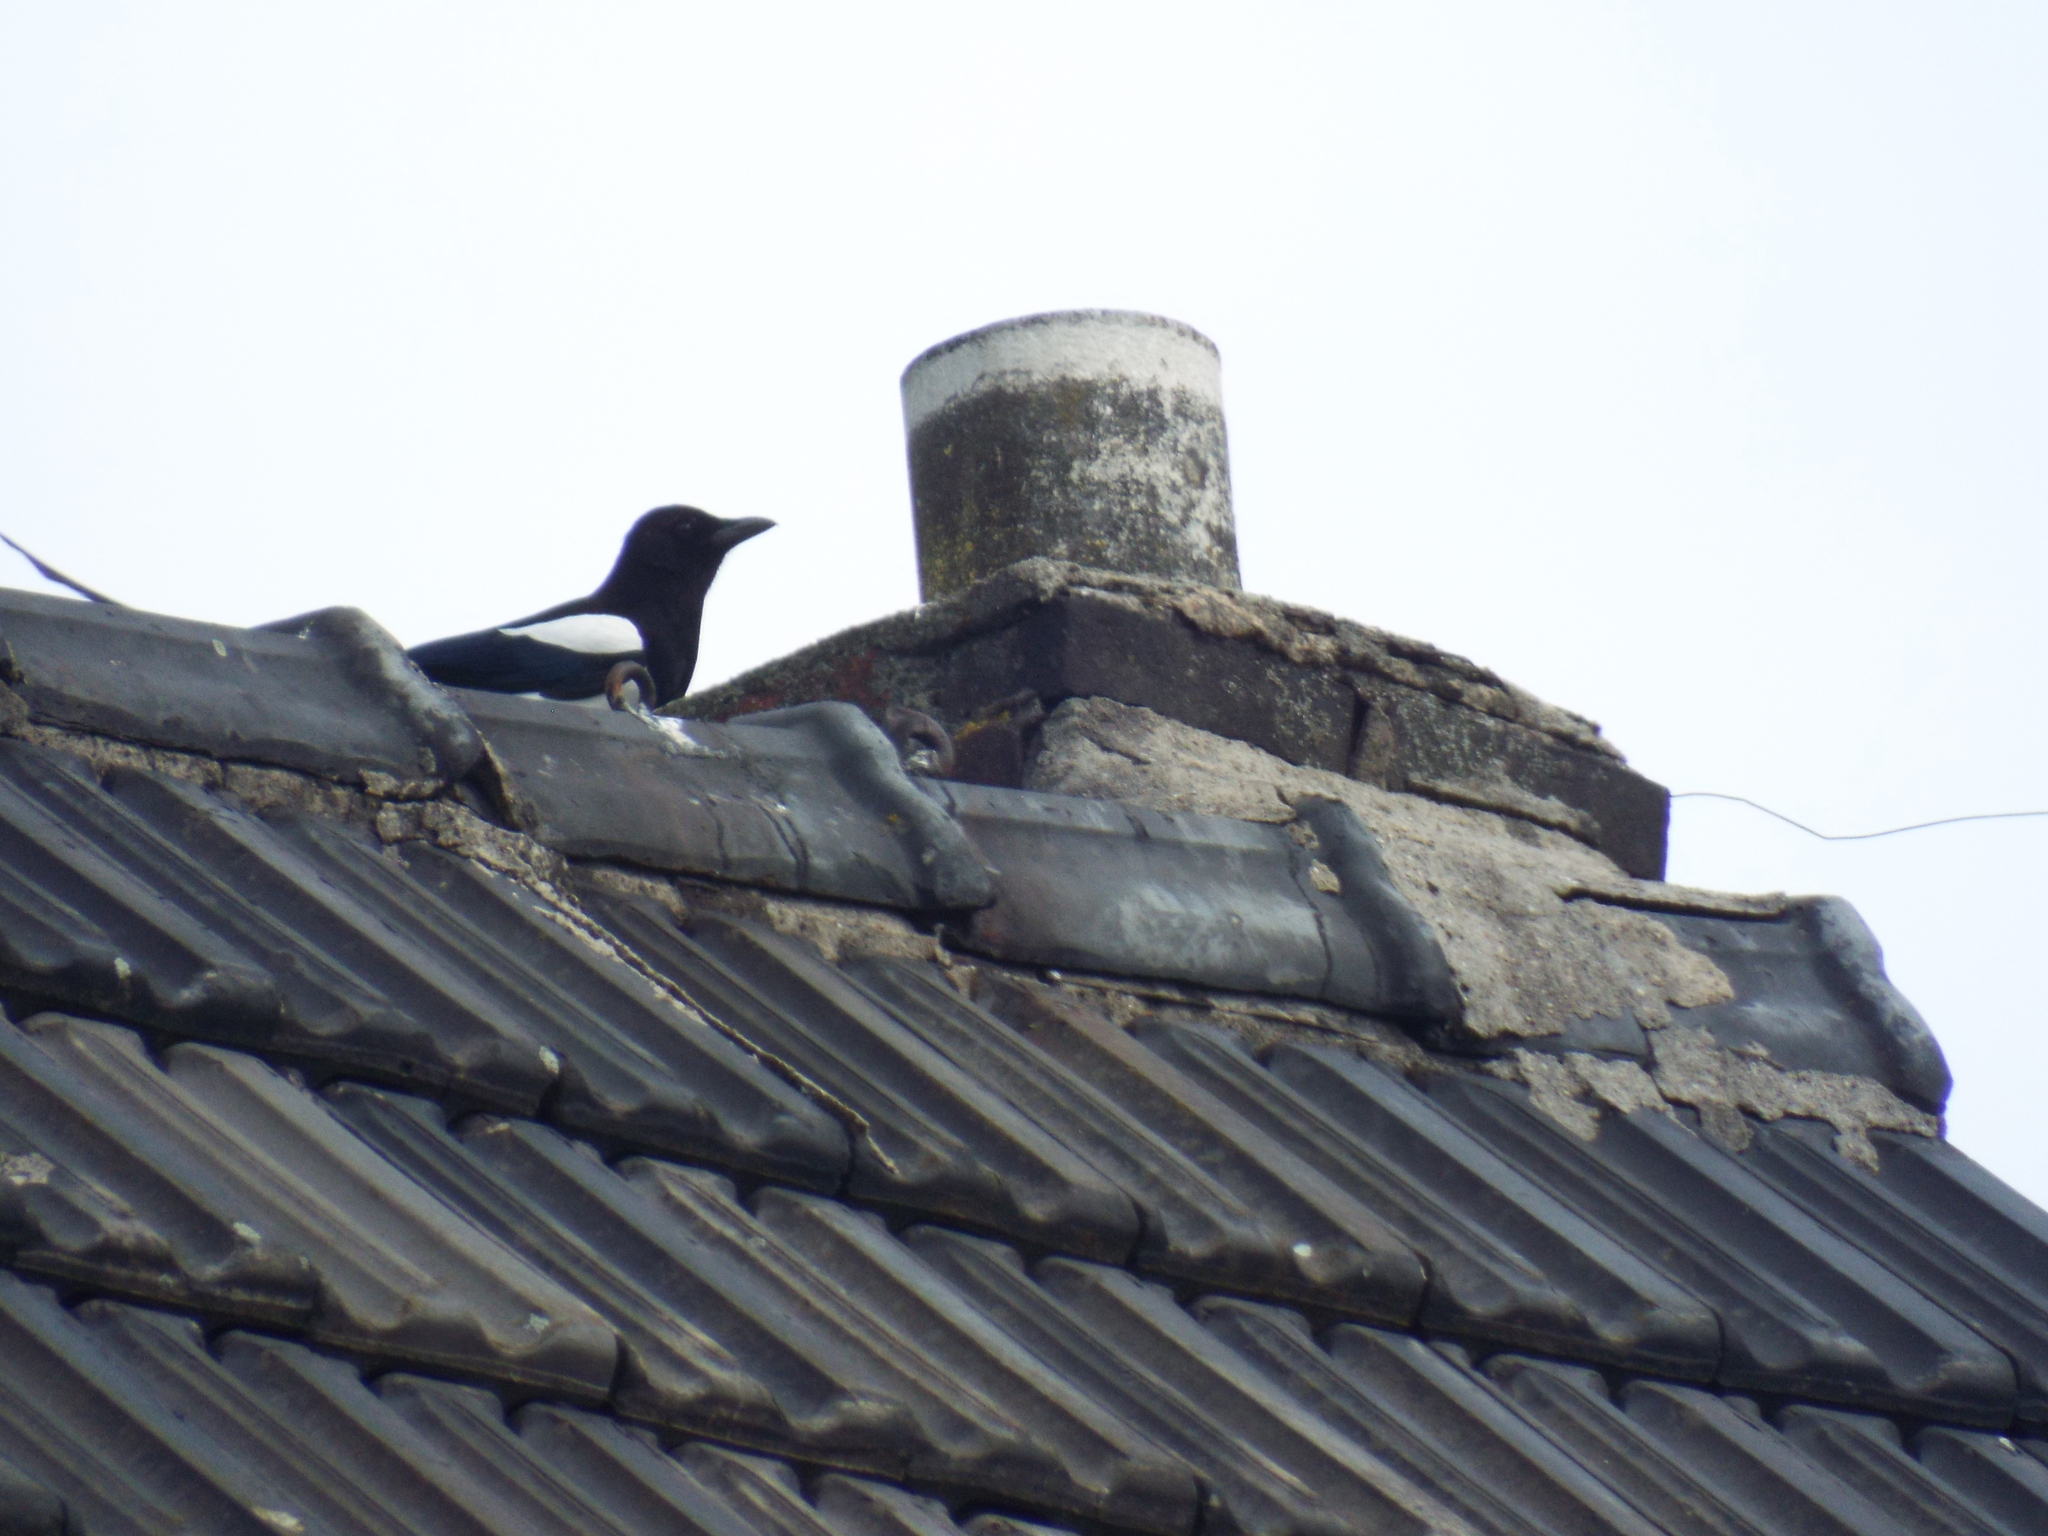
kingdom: Animalia
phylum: Chordata
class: Aves
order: Passeriformes
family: Corvidae
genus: Pica
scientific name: Pica pica
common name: Eurasian magpie
